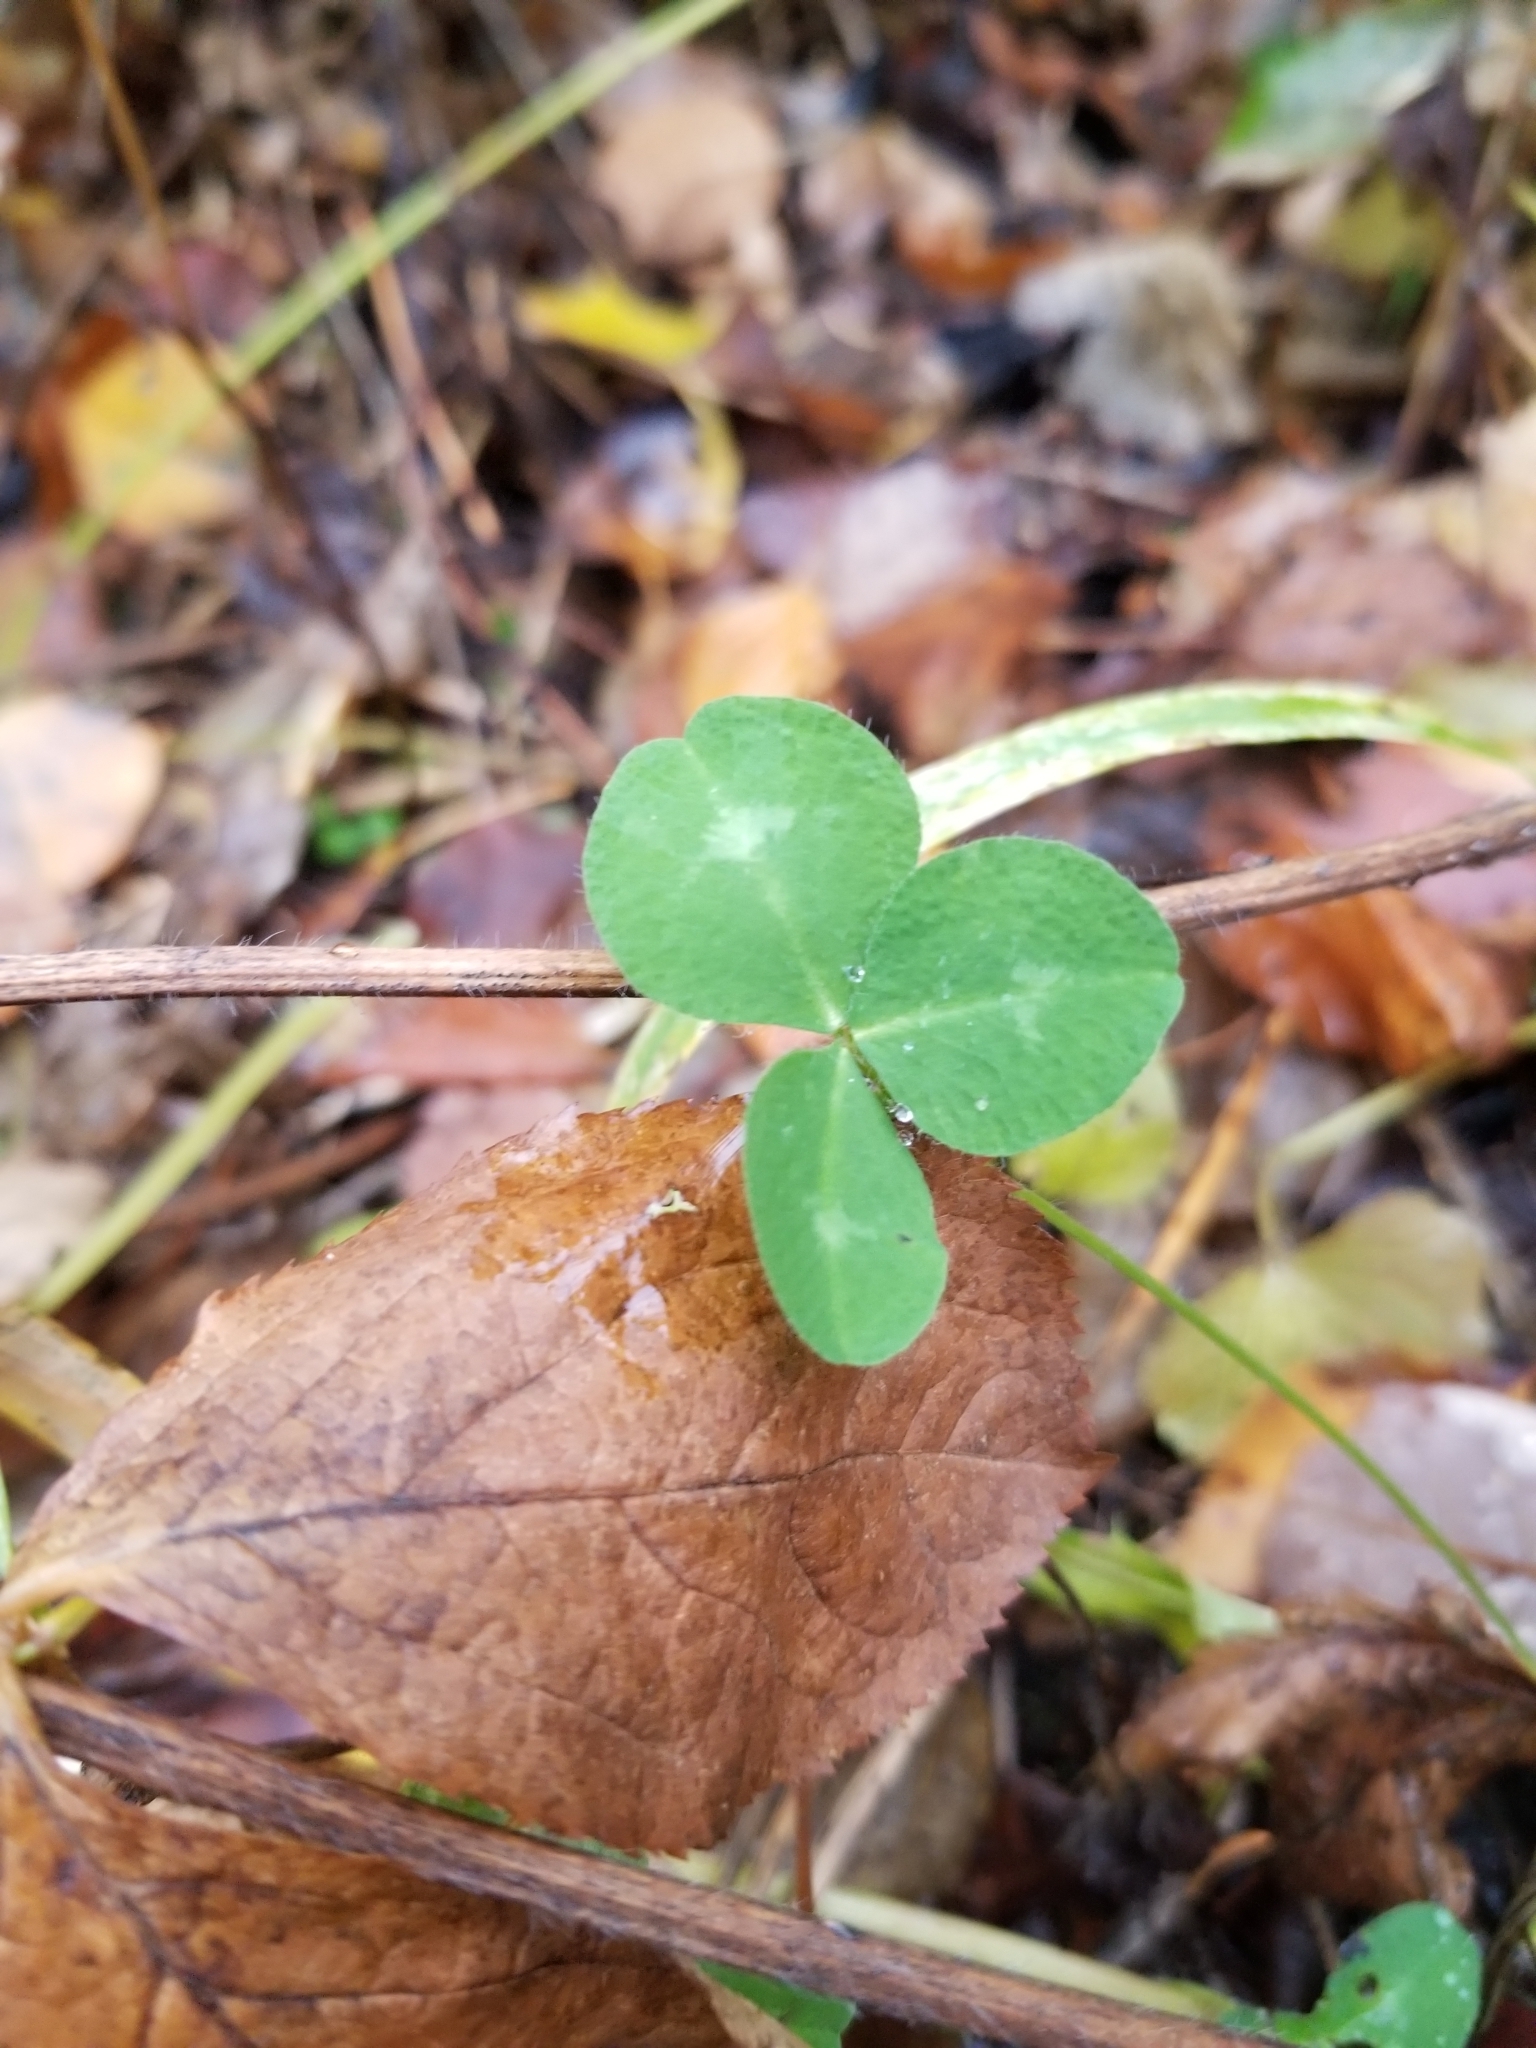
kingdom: Plantae
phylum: Tracheophyta
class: Magnoliopsida
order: Fabales
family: Fabaceae
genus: Trifolium
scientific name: Trifolium pratense
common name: Red clover
